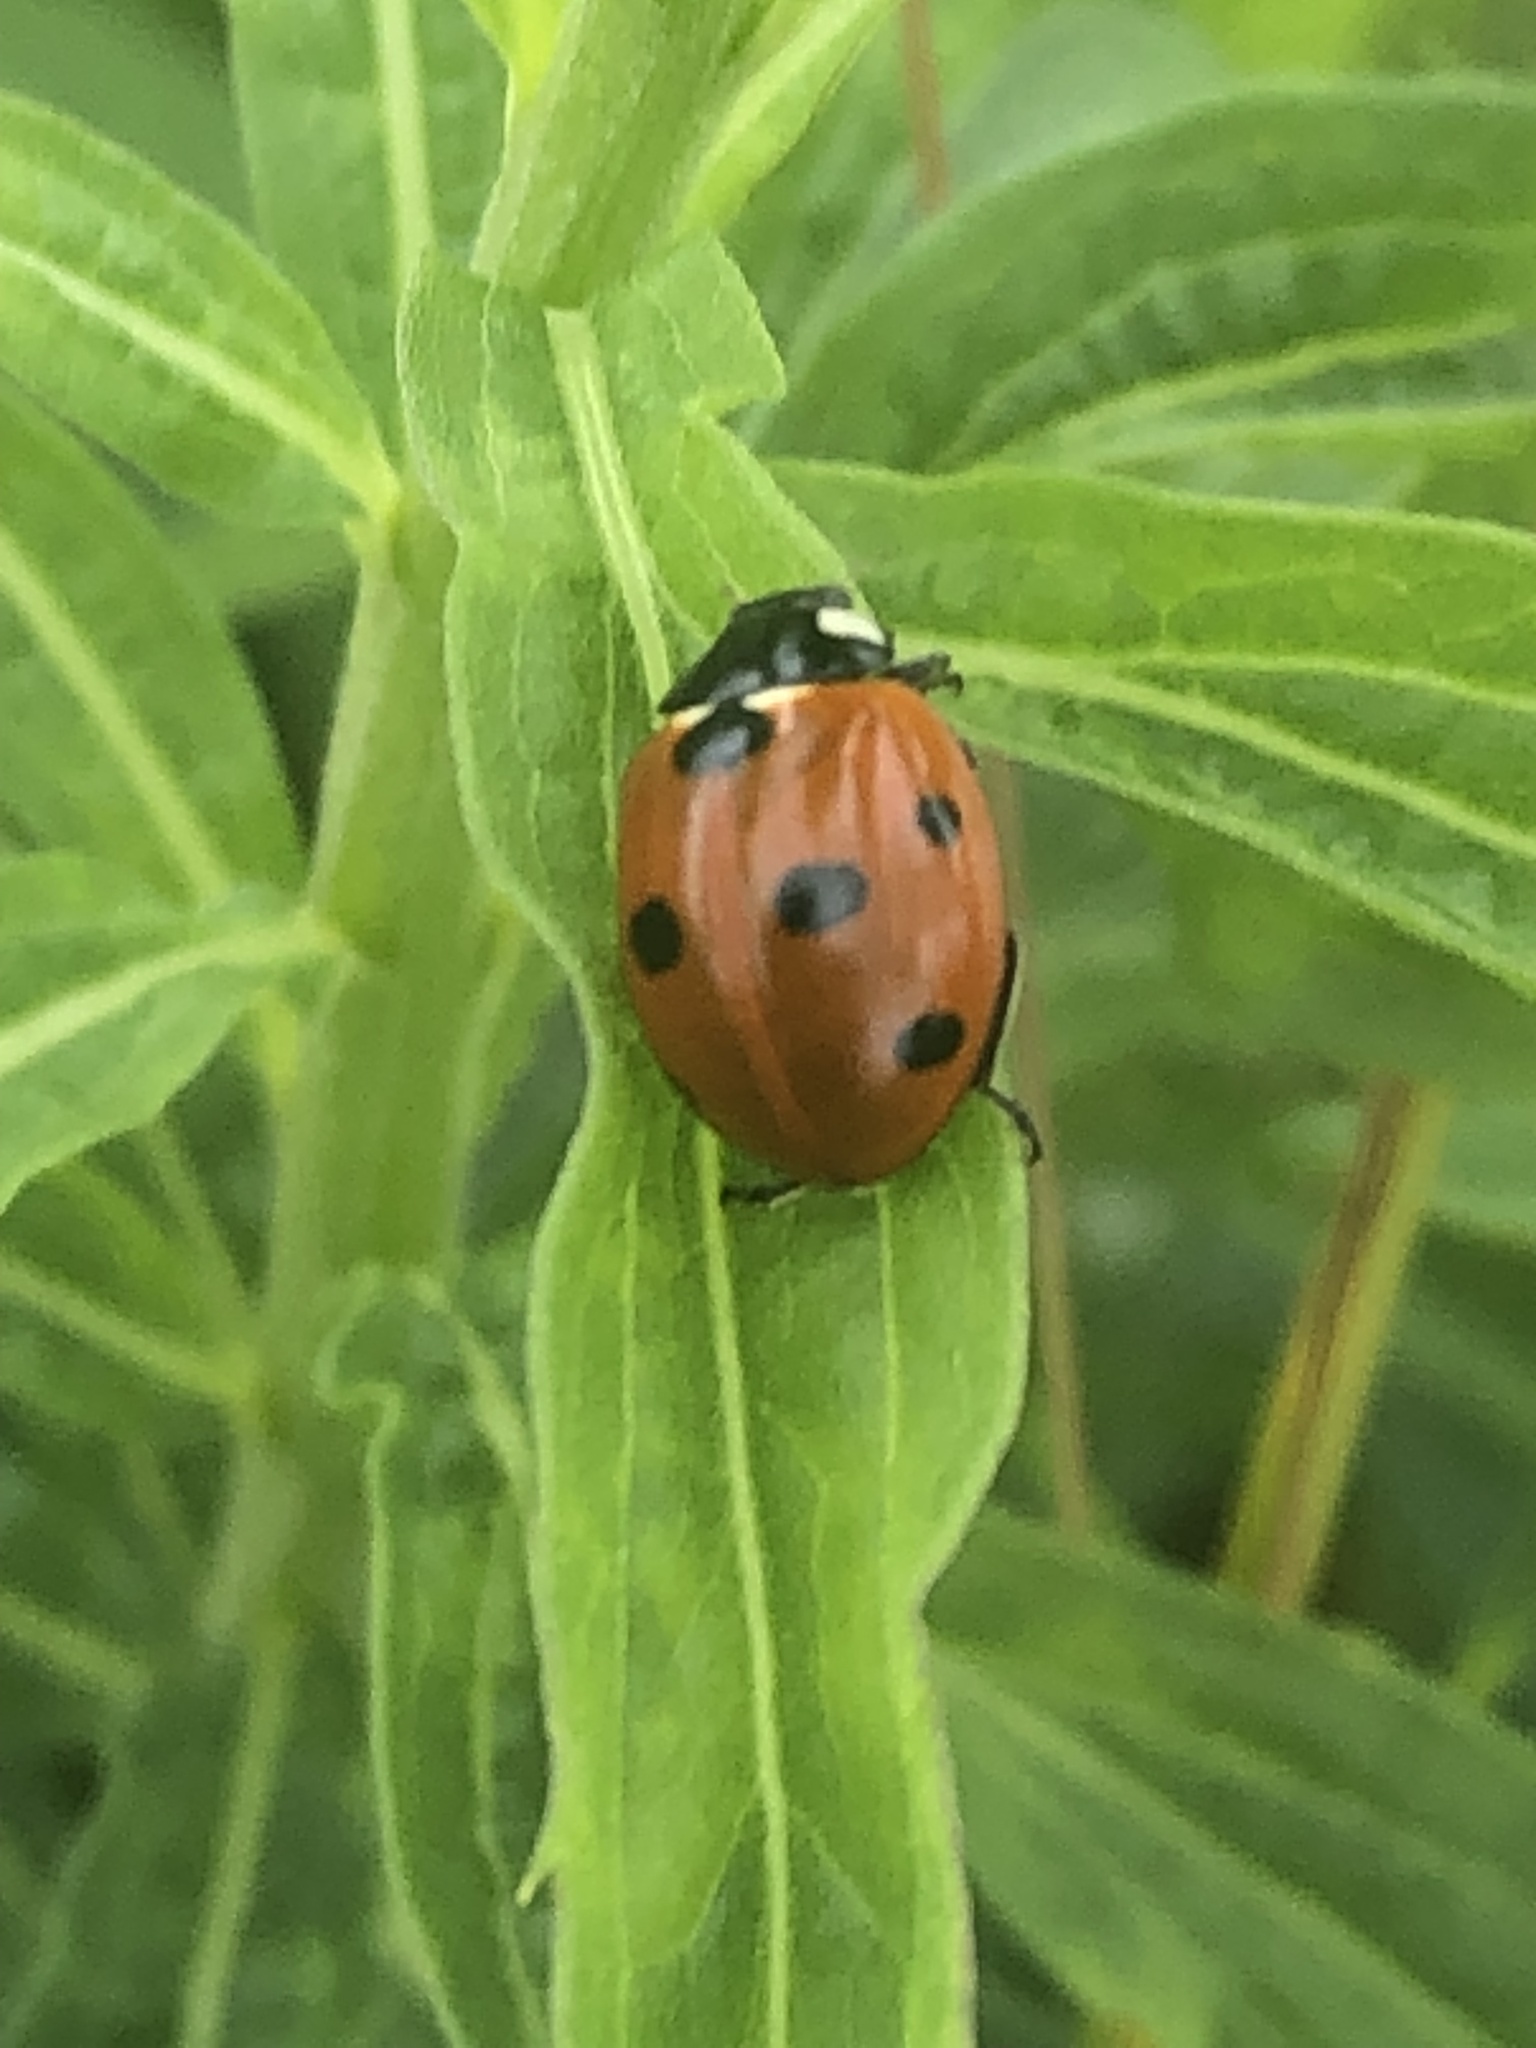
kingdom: Animalia
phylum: Arthropoda
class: Insecta
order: Coleoptera
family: Coccinellidae
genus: Coccinella
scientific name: Coccinella septempunctata
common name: Sevenspotted lady beetle
